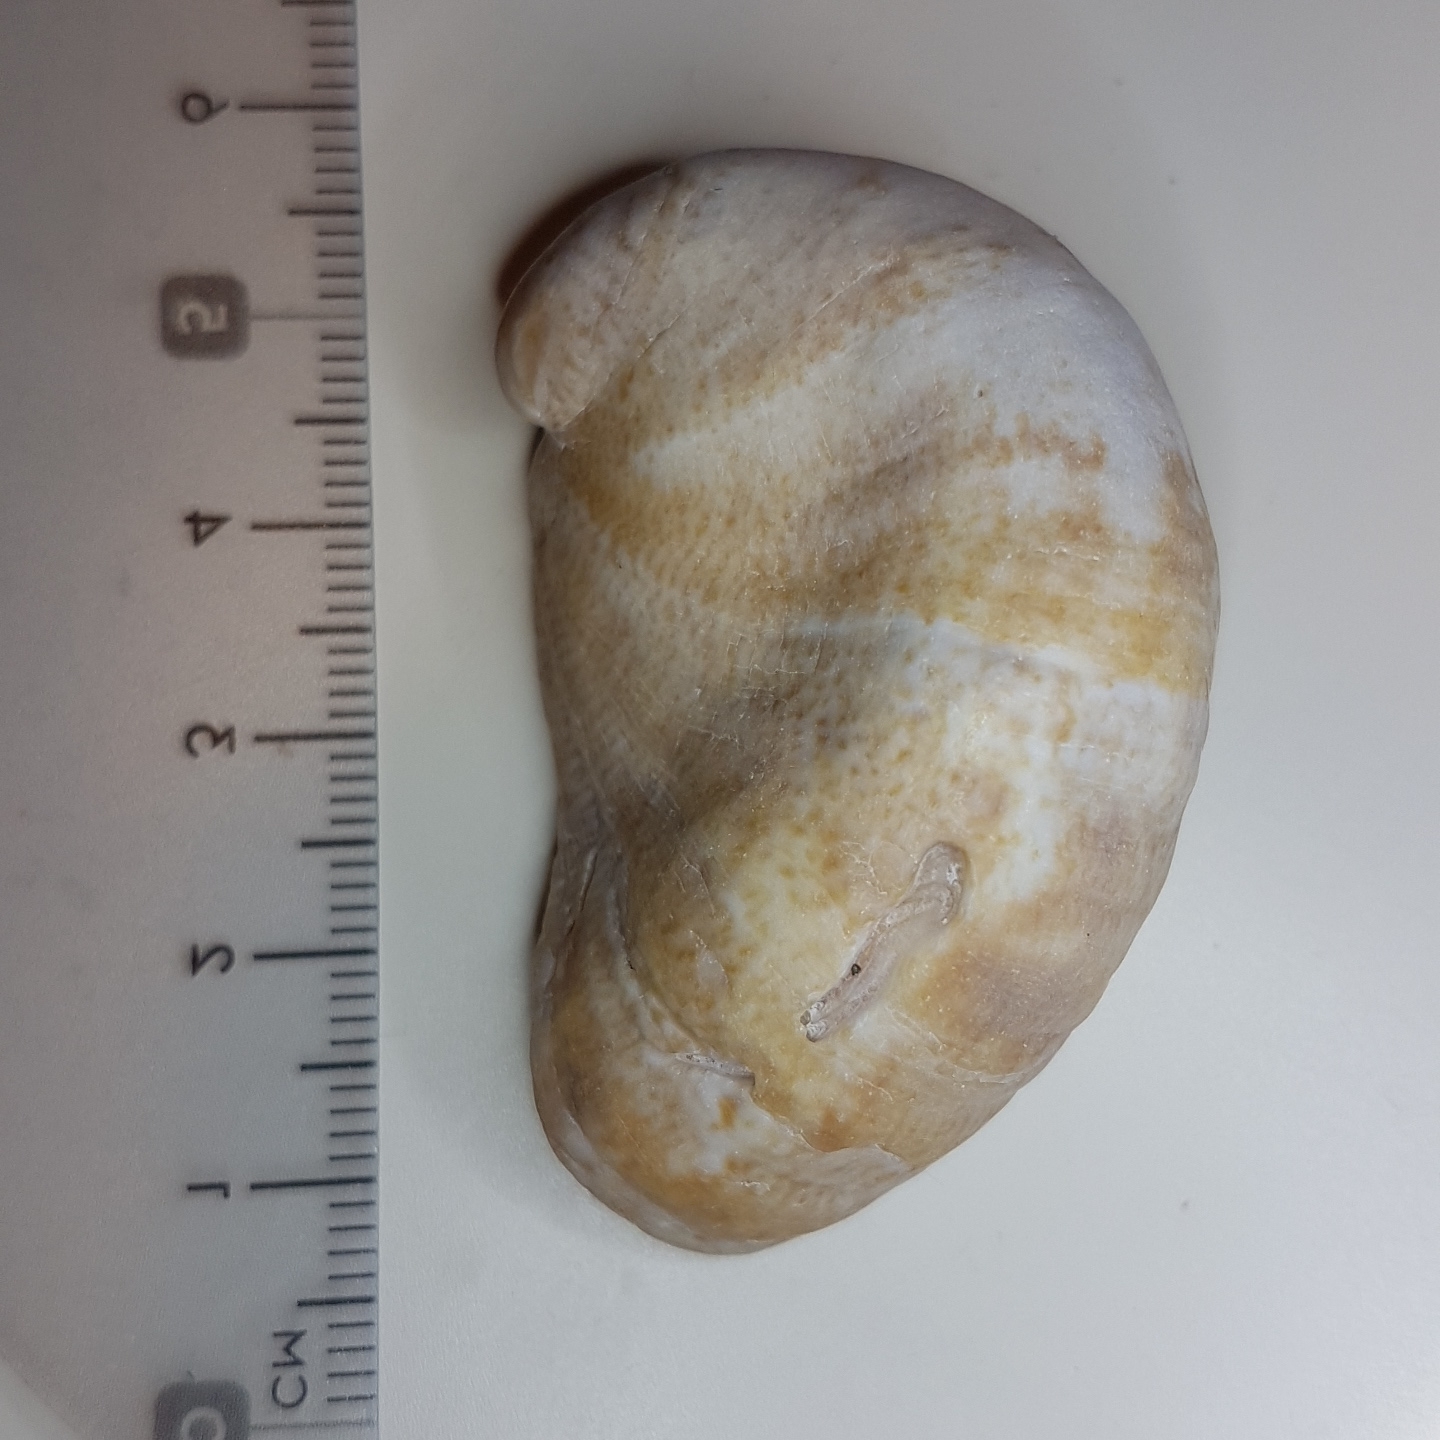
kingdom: Animalia
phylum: Mollusca
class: Gastropoda
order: Littorinimorpha
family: Calyptraeidae
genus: Crepidula
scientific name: Crepidula fornicata
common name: Slipper limpet
